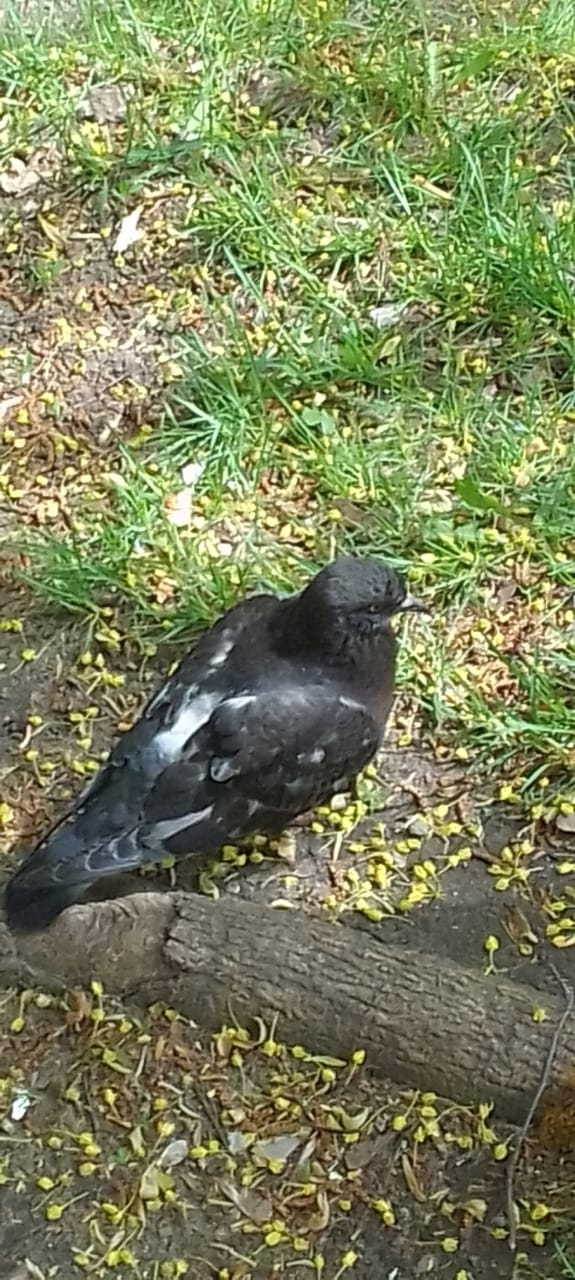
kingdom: Animalia
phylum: Chordata
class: Aves
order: Columbiformes
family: Columbidae
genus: Columba
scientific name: Columba livia
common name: Rock pigeon
